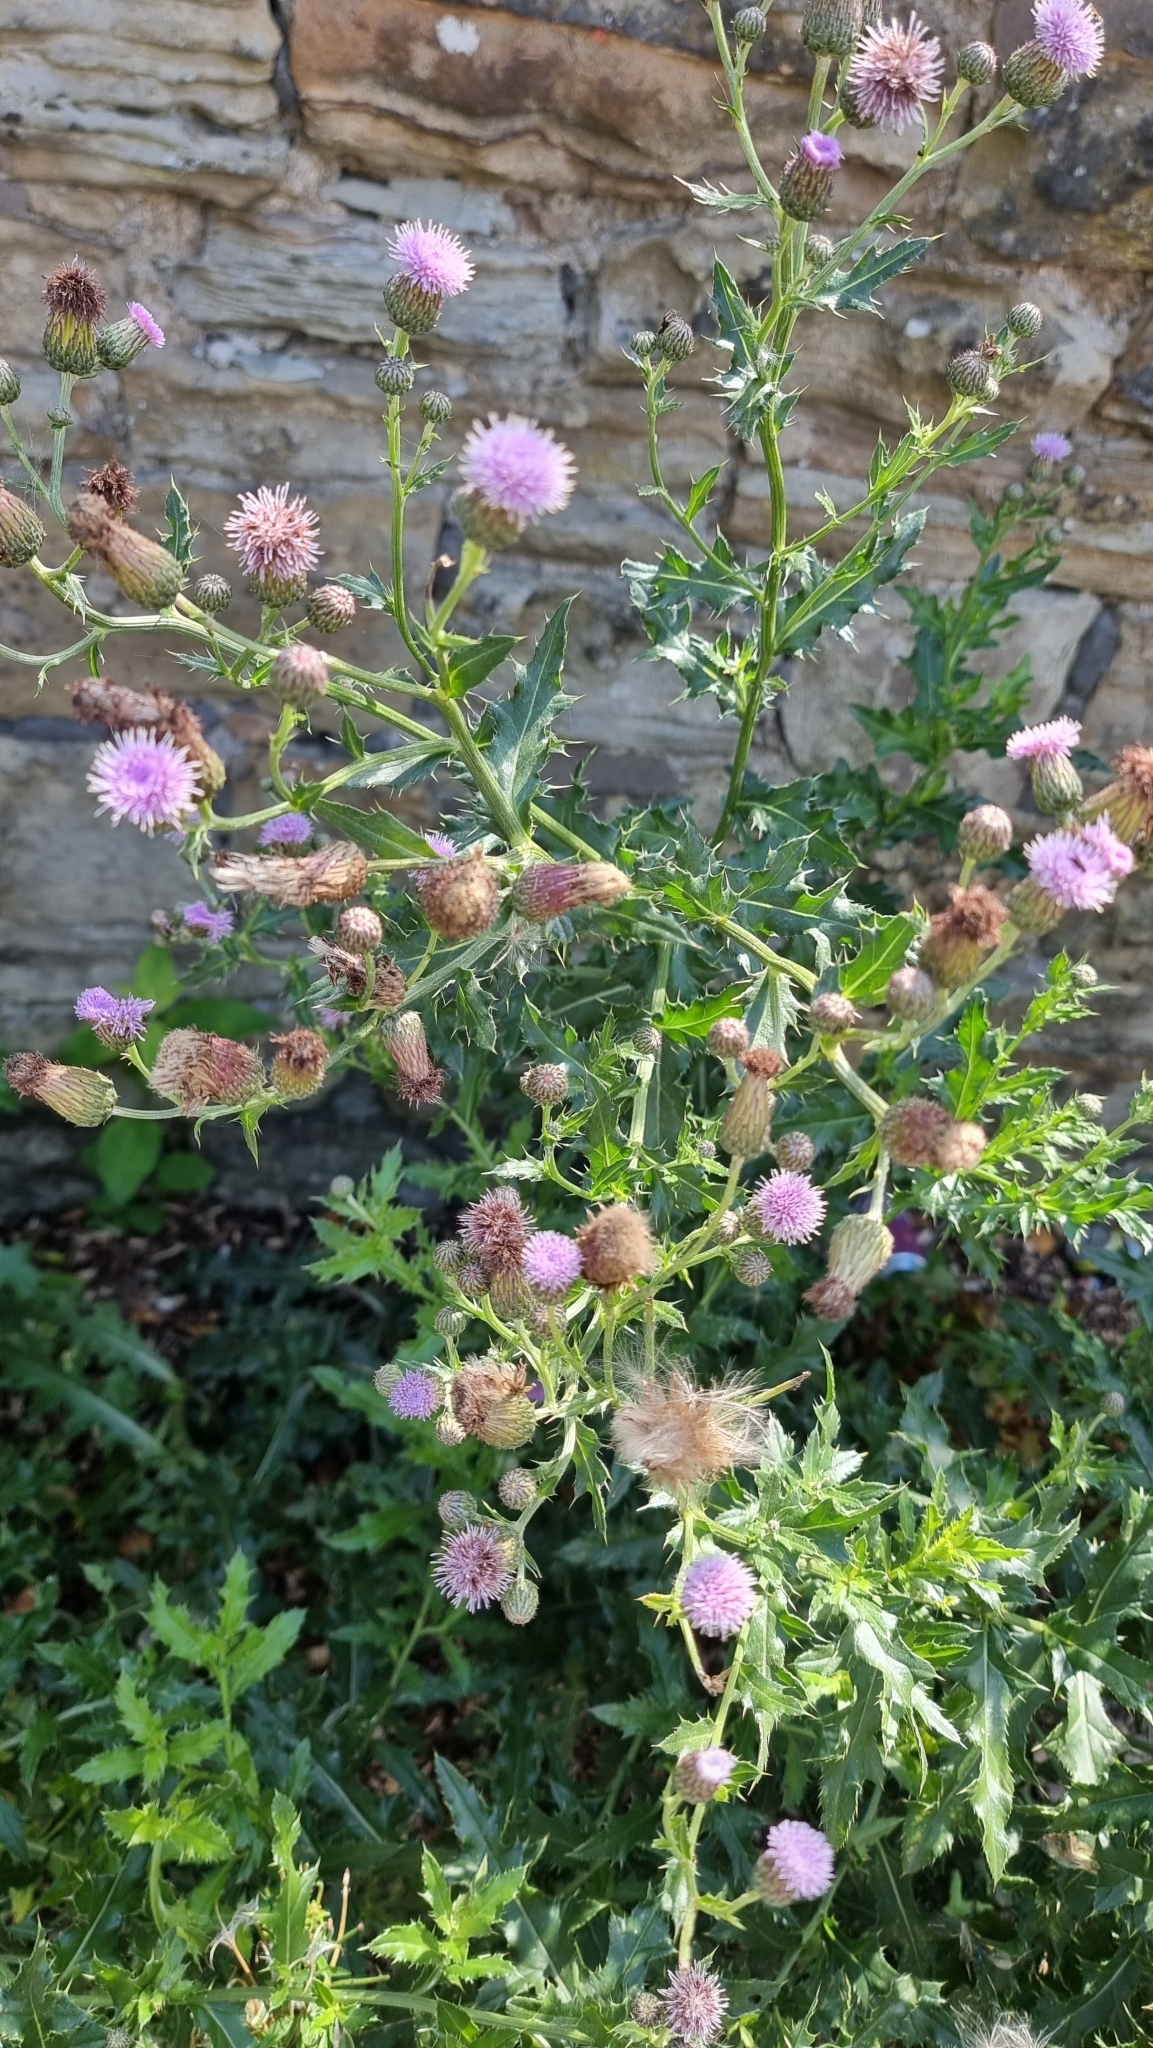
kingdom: Plantae
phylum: Tracheophyta
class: Magnoliopsida
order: Asterales
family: Asteraceae
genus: Cirsium
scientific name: Cirsium arvense
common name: Creeping thistle
